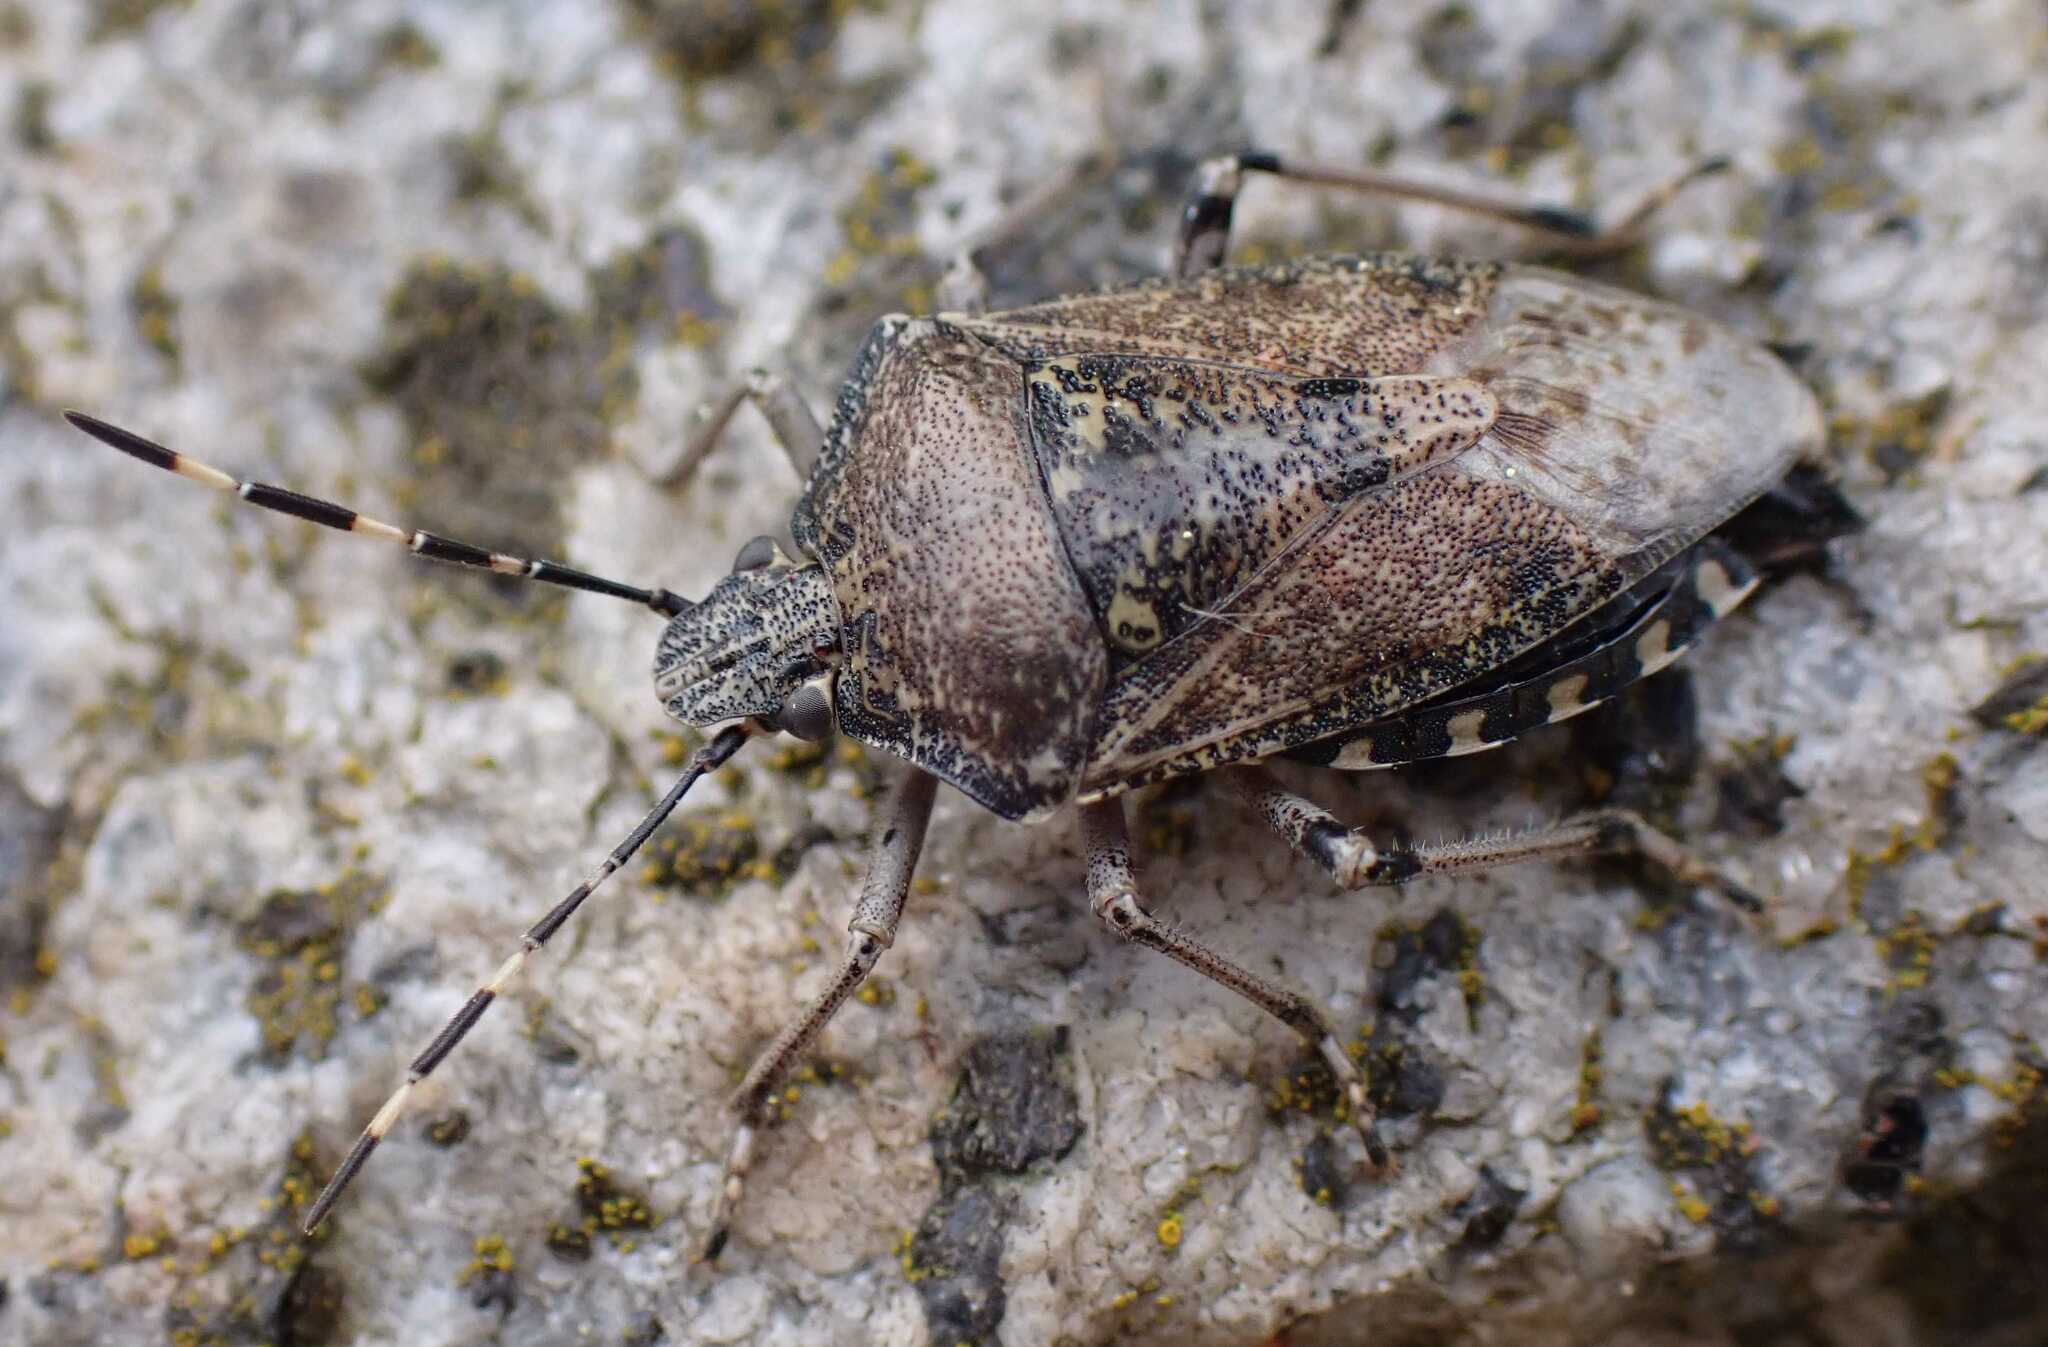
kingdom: Animalia
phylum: Arthropoda
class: Insecta
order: Hemiptera
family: Pentatomidae
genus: Rhaphigaster
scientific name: Rhaphigaster nebulosa
